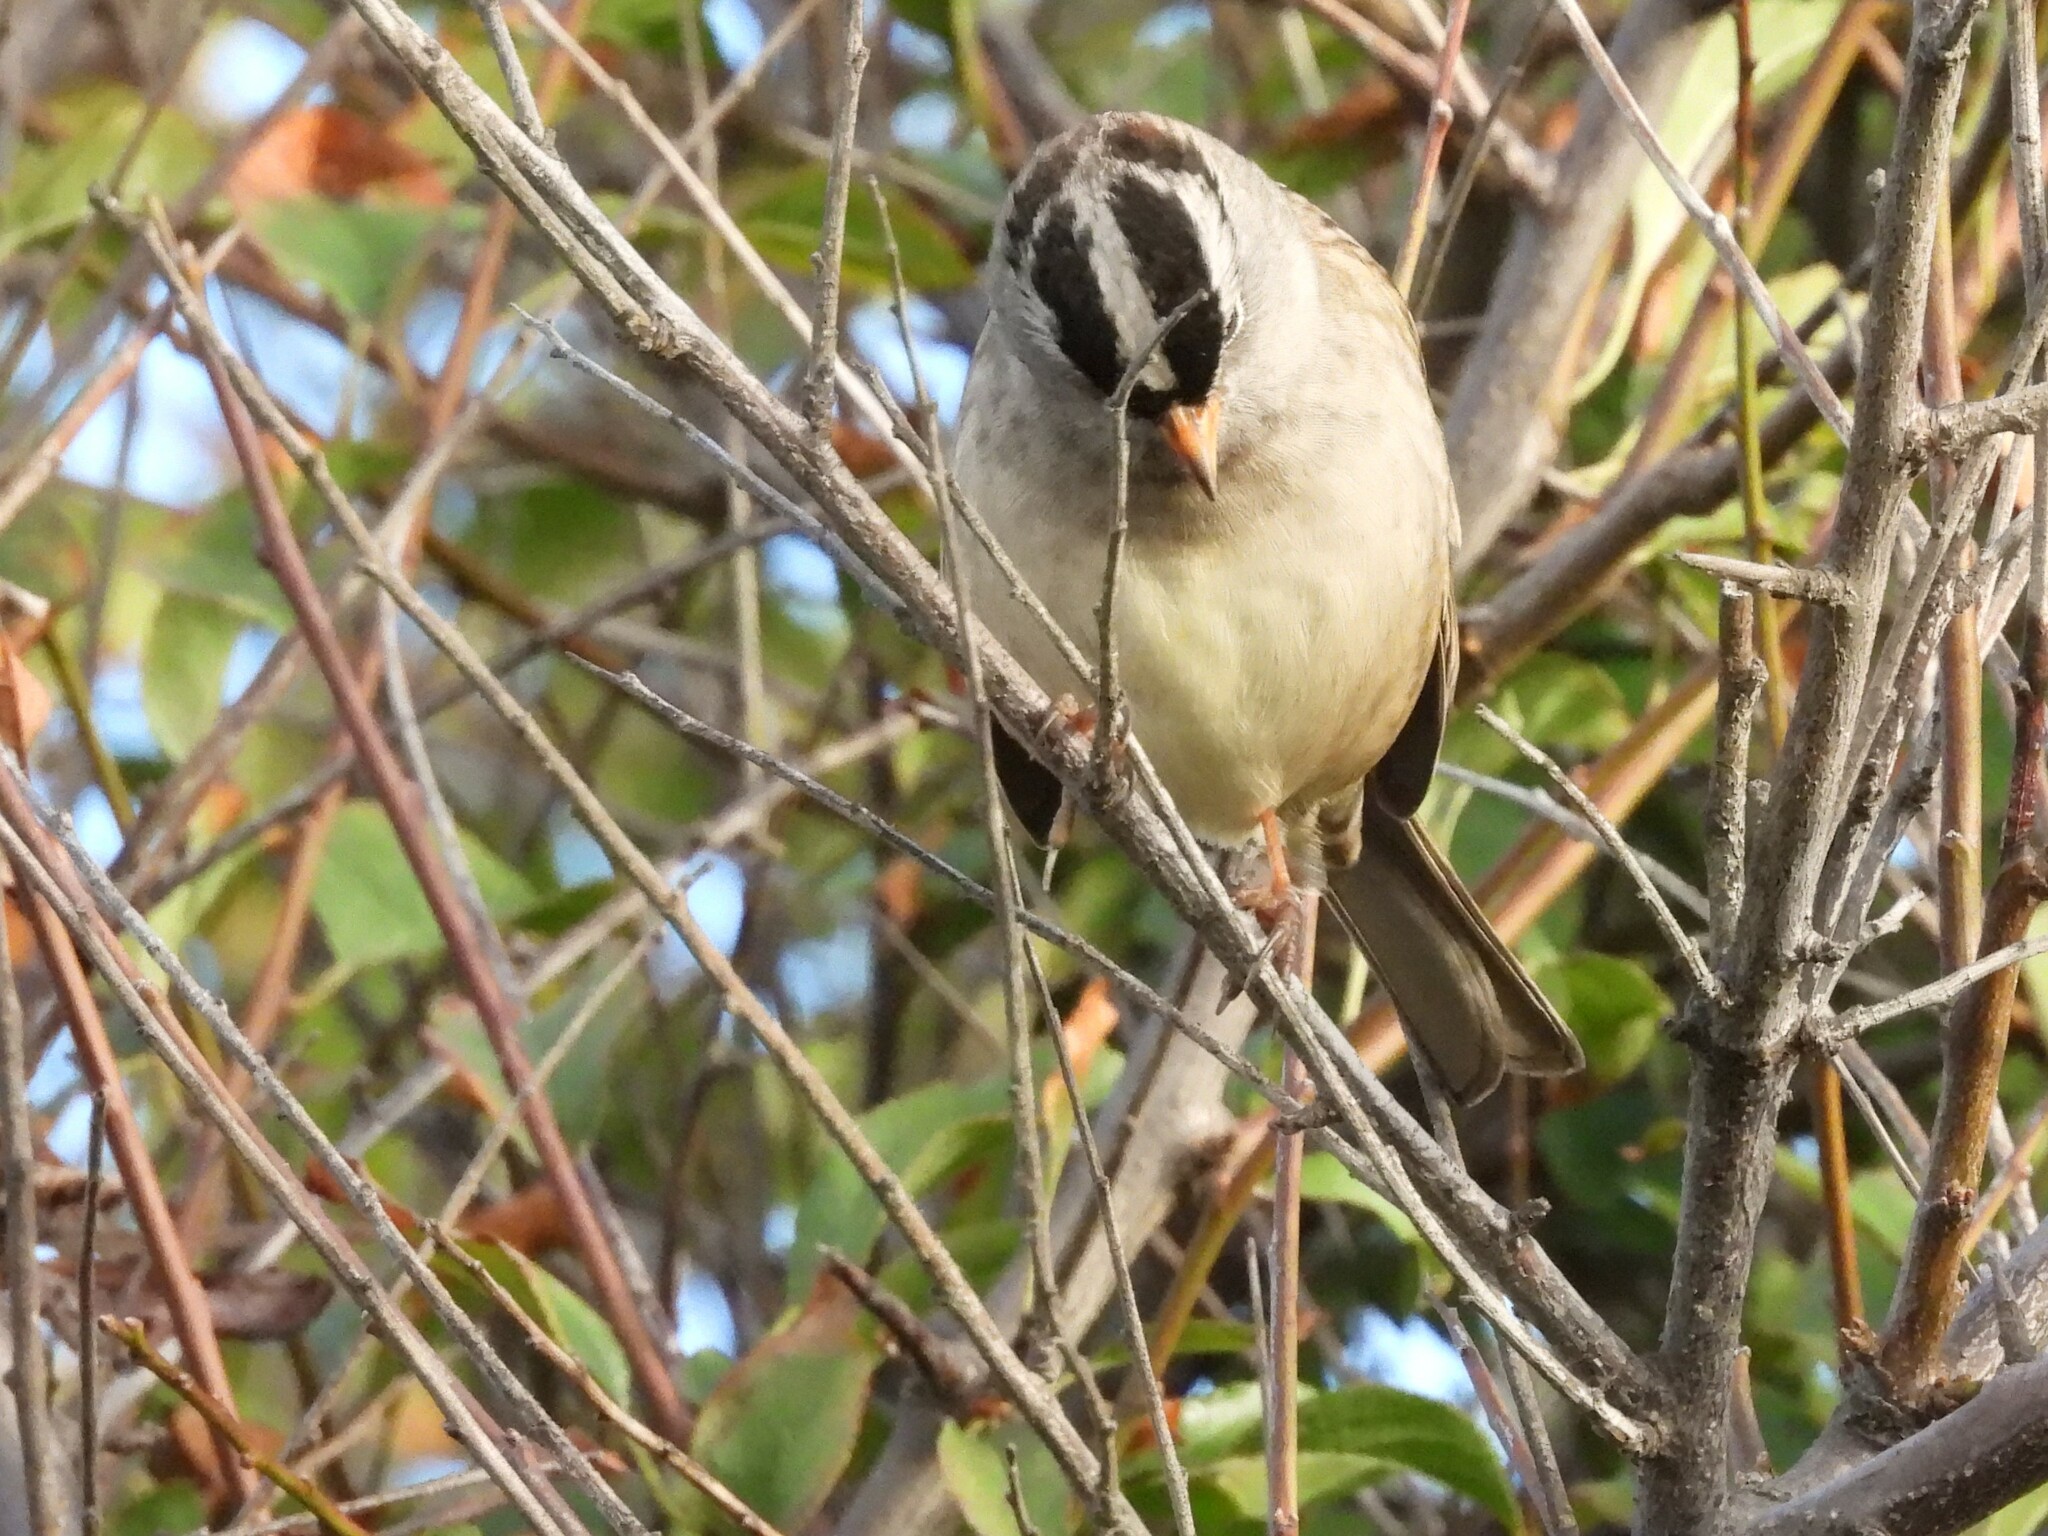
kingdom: Animalia
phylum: Chordata
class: Aves
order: Passeriformes
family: Passerellidae
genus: Zonotrichia
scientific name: Zonotrichia leucophrys
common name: White-crowned sparrow
